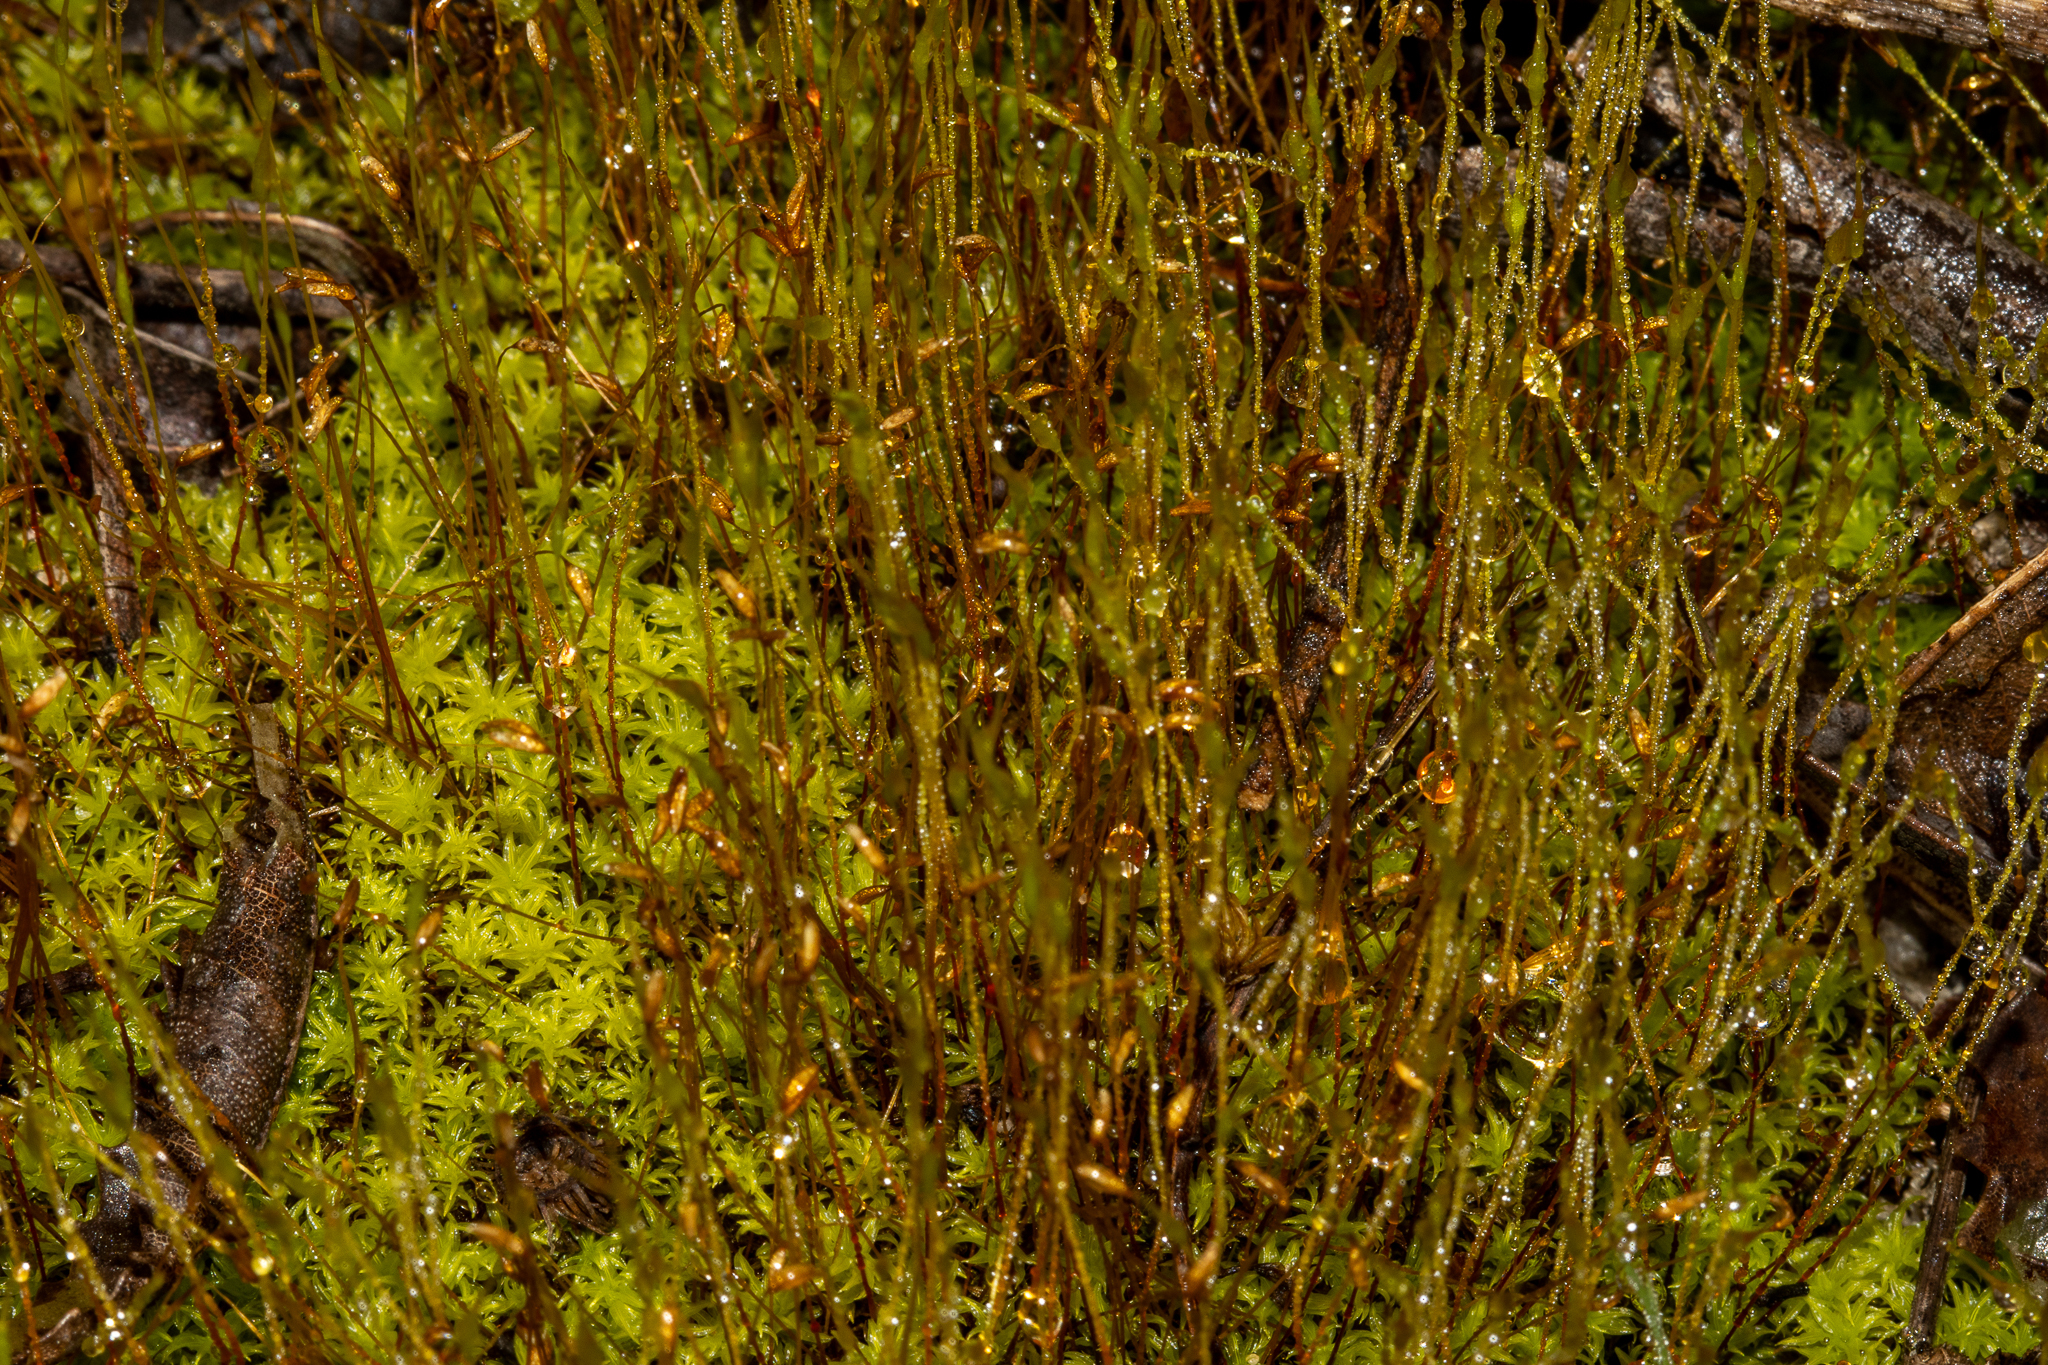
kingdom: Plantae
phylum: Bryophyta
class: Bryopsida
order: Dicranales
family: Ditrichaceae
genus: Ceratodon
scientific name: Ceratodon purpureus
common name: Redshank
